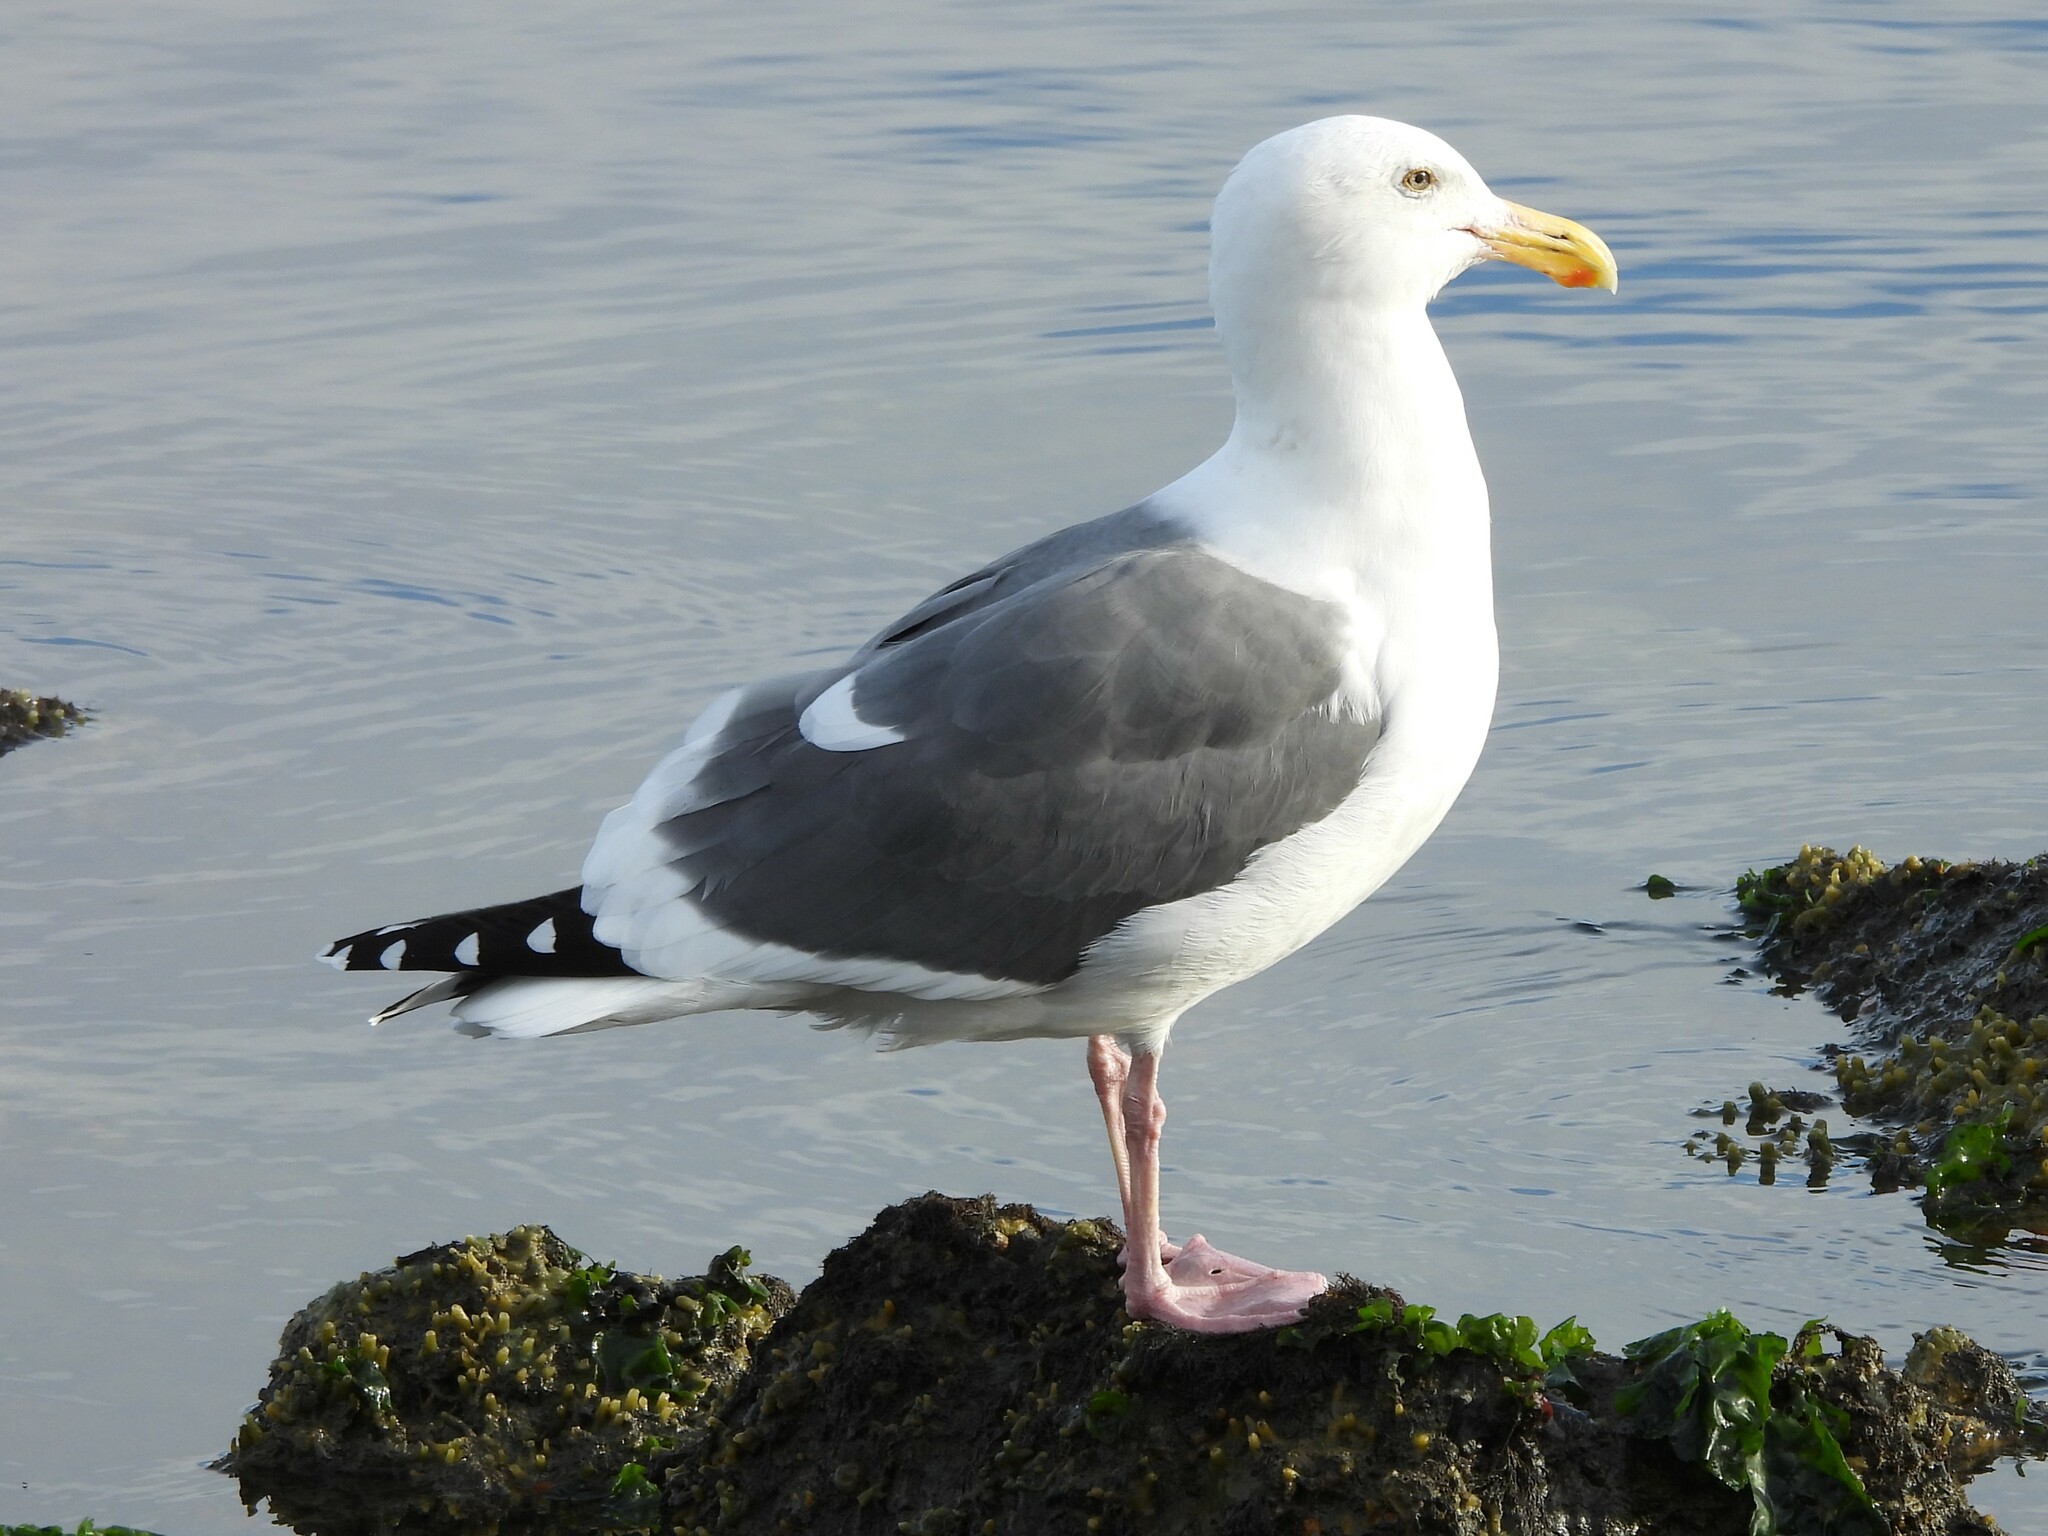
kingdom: Animalia
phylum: Chordata
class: Aves
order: Charadriiformes
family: Laridae
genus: Larus
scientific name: Larus occidentalis
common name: Western gull
